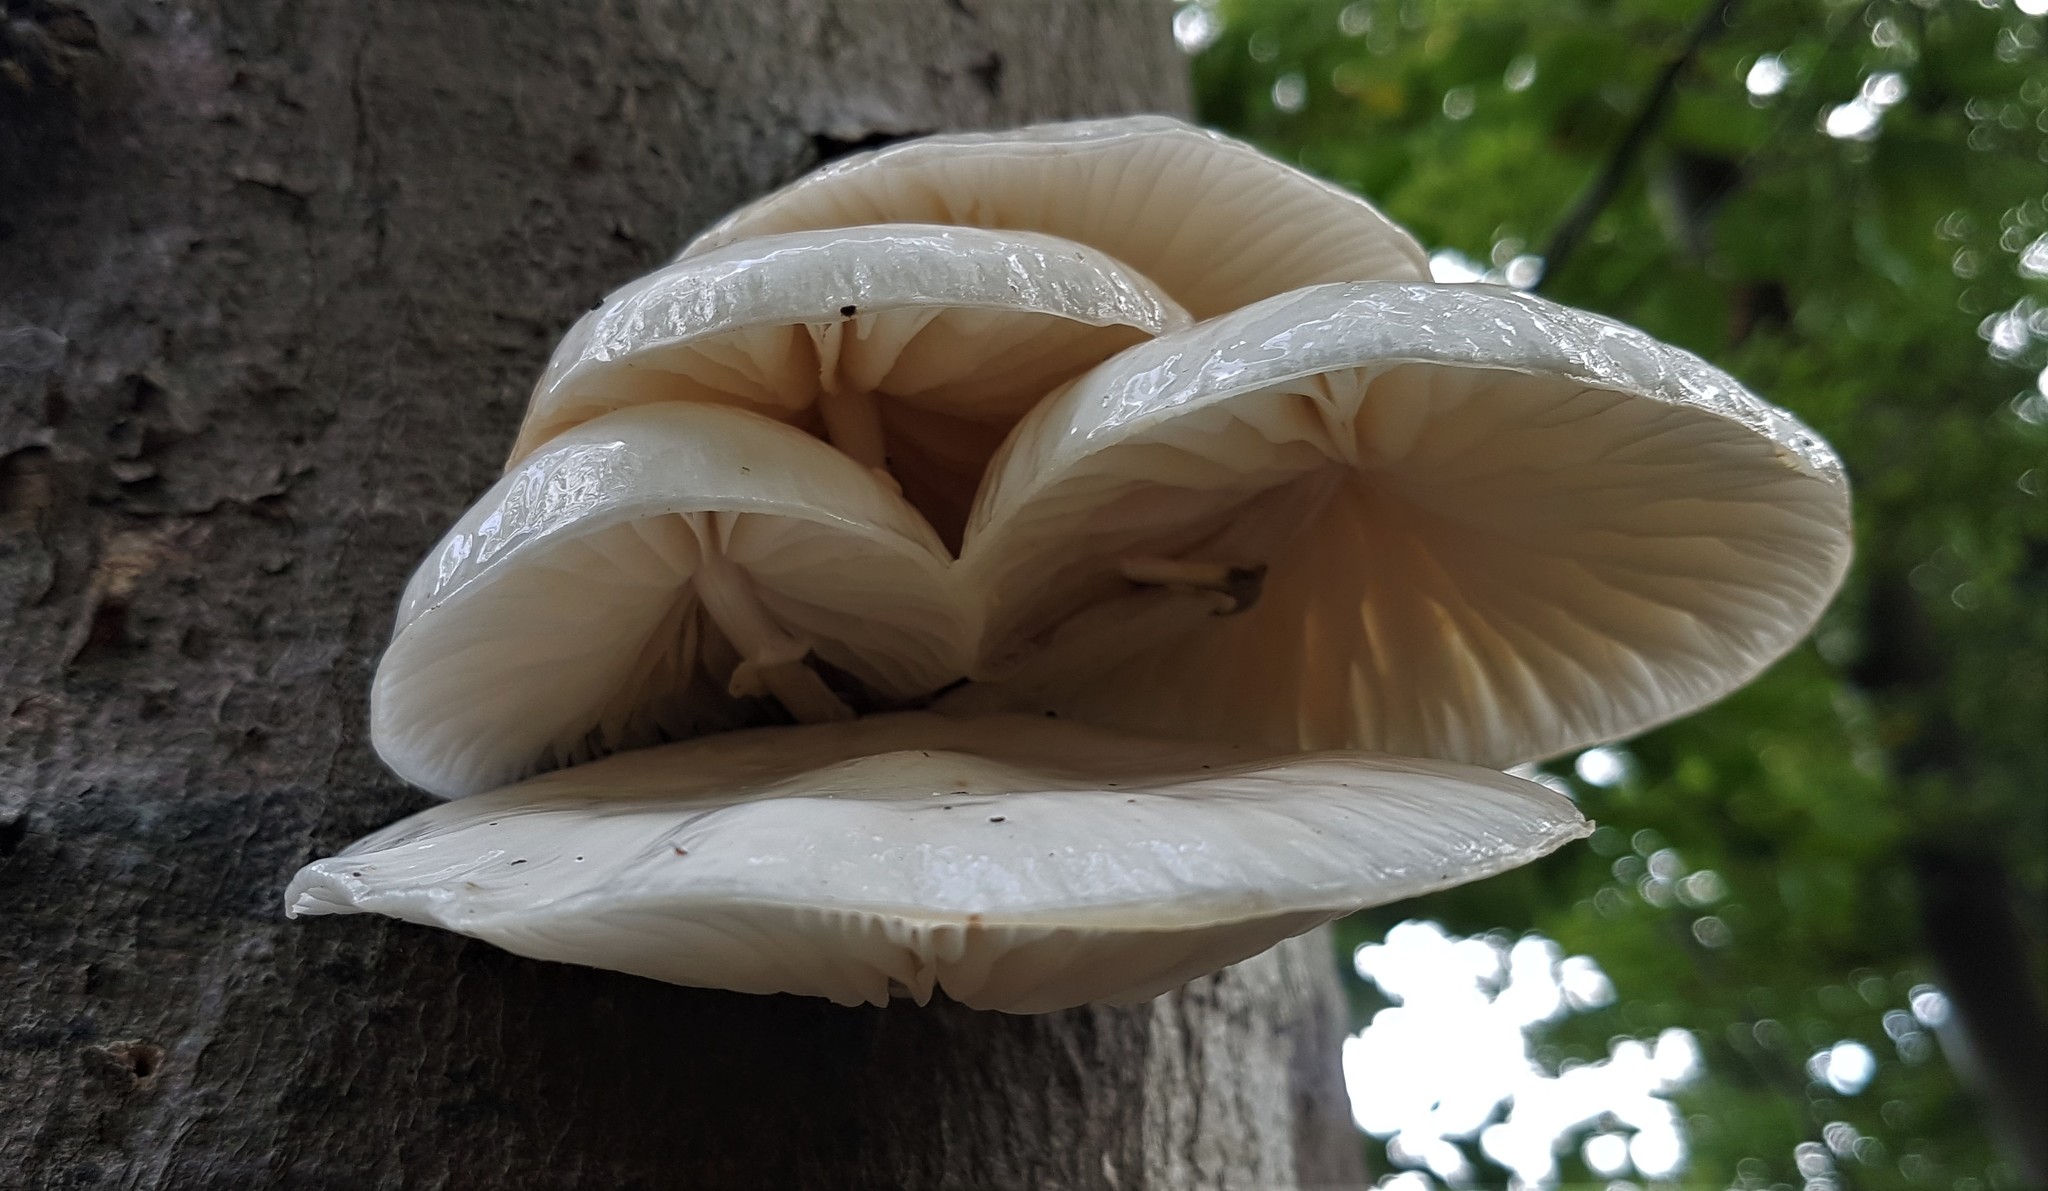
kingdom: Fungi
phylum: Basidiomycota
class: Agaricomycetes
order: Agaricales
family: Physalacriaceae
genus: Mucidula
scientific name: Mucidula mucida
